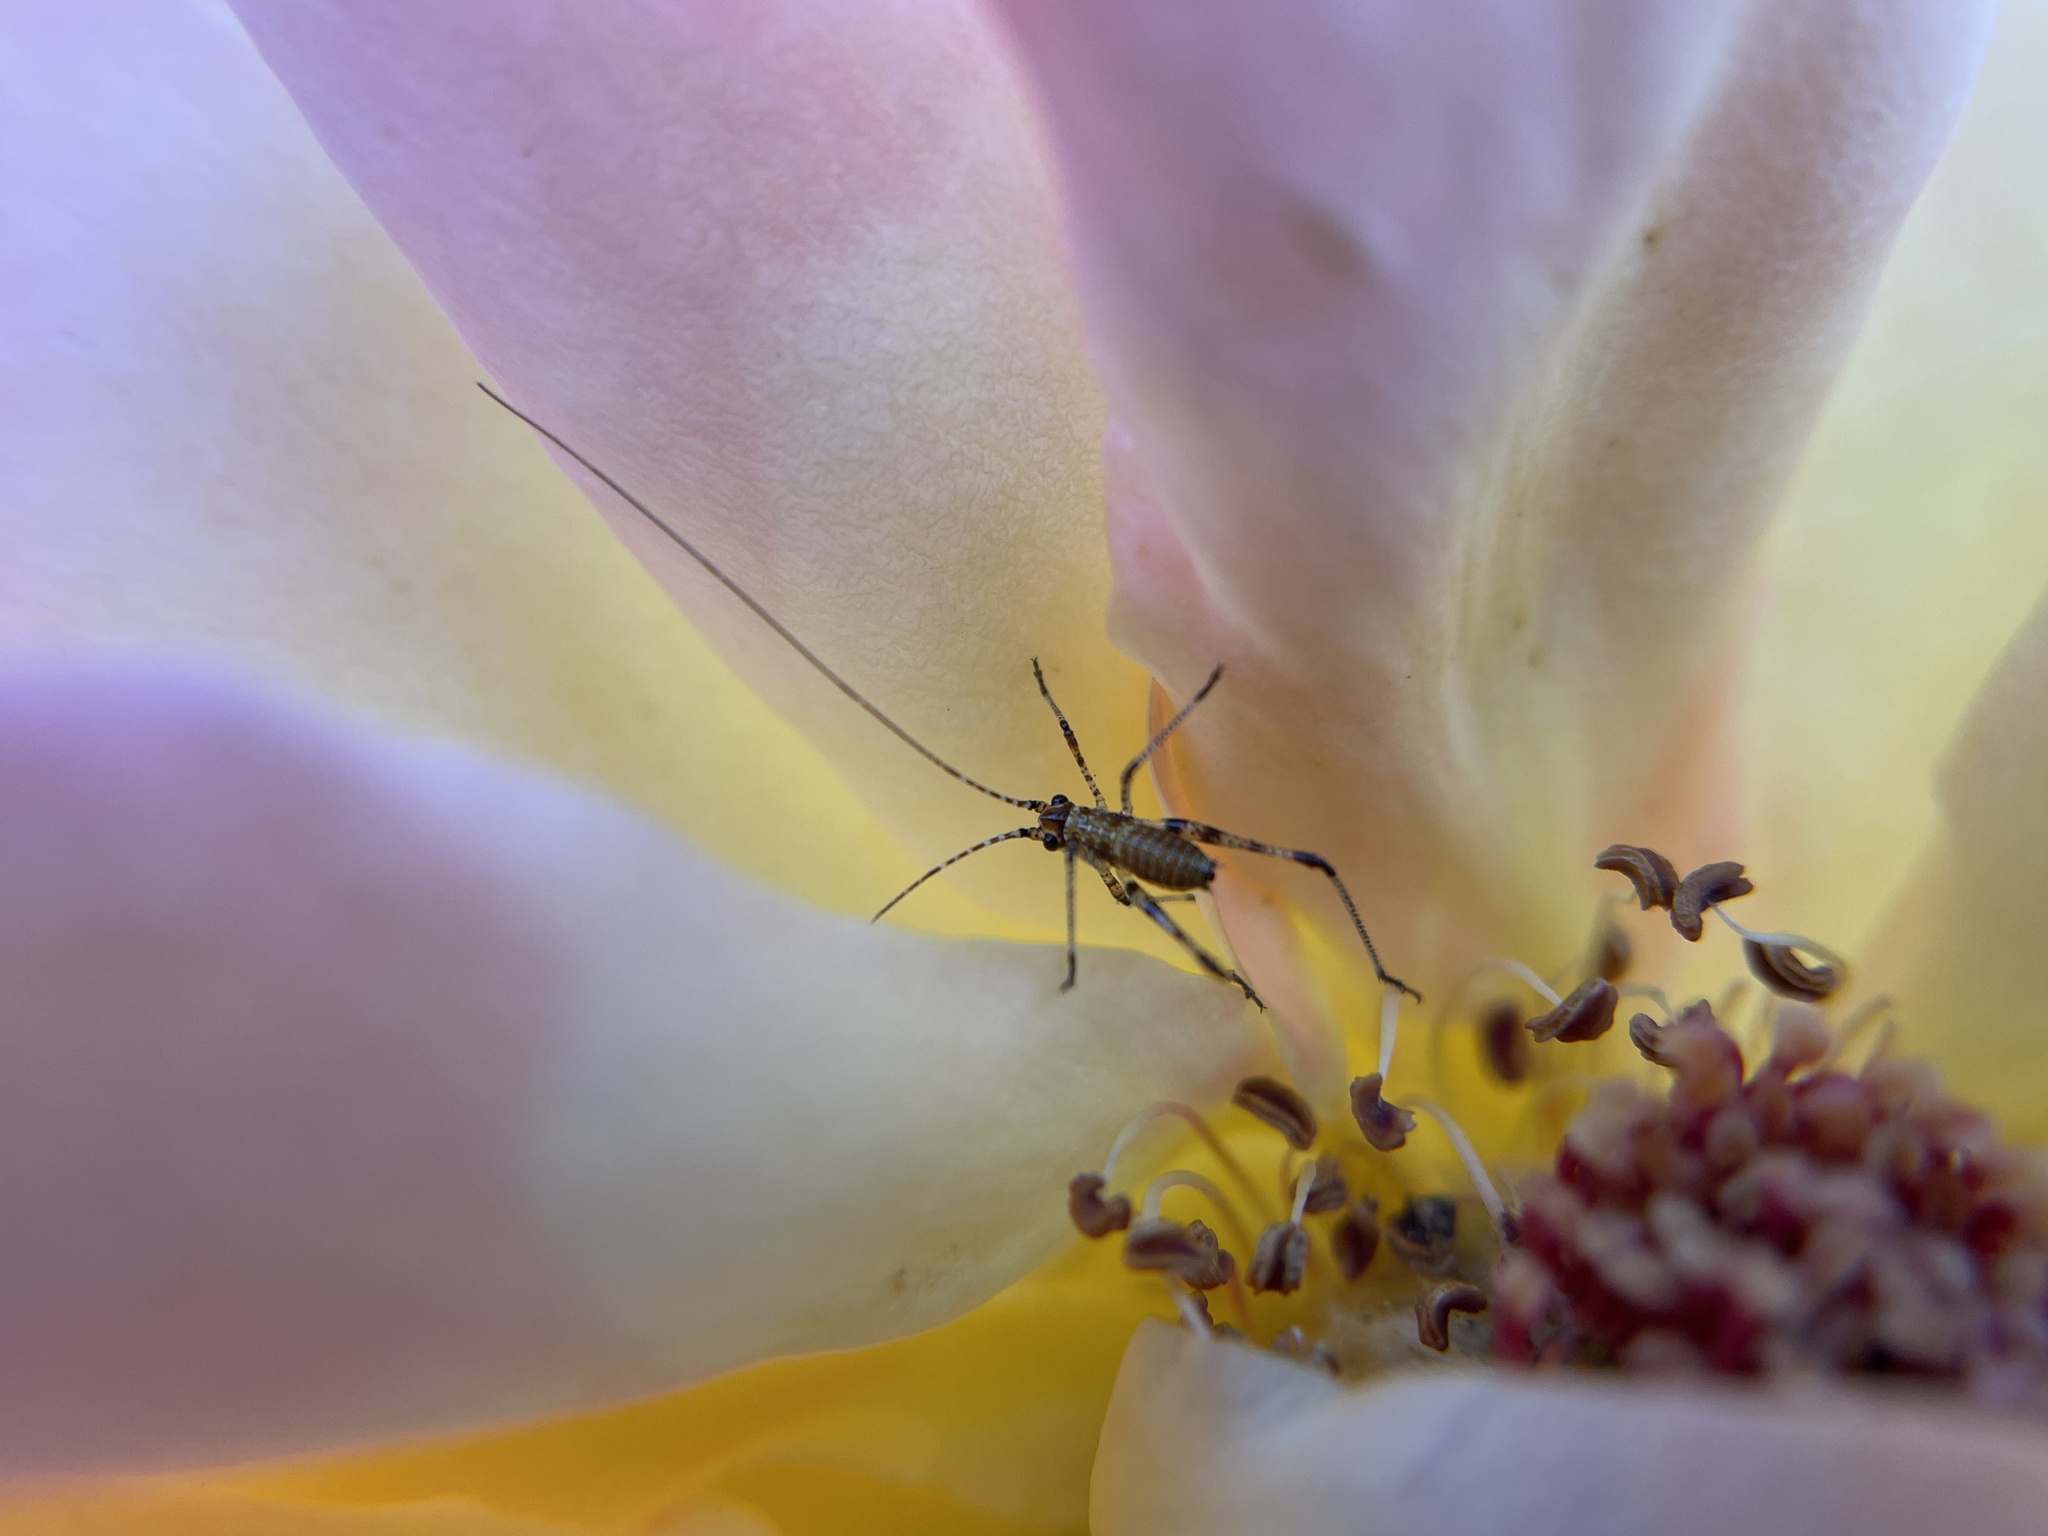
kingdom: Animalia
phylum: Arthropoda
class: Insecta
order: Orthoptera
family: Tettigoniidae
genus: Phaneroptera
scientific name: Phaneroptera nana
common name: Southern sickle bush-cricket
